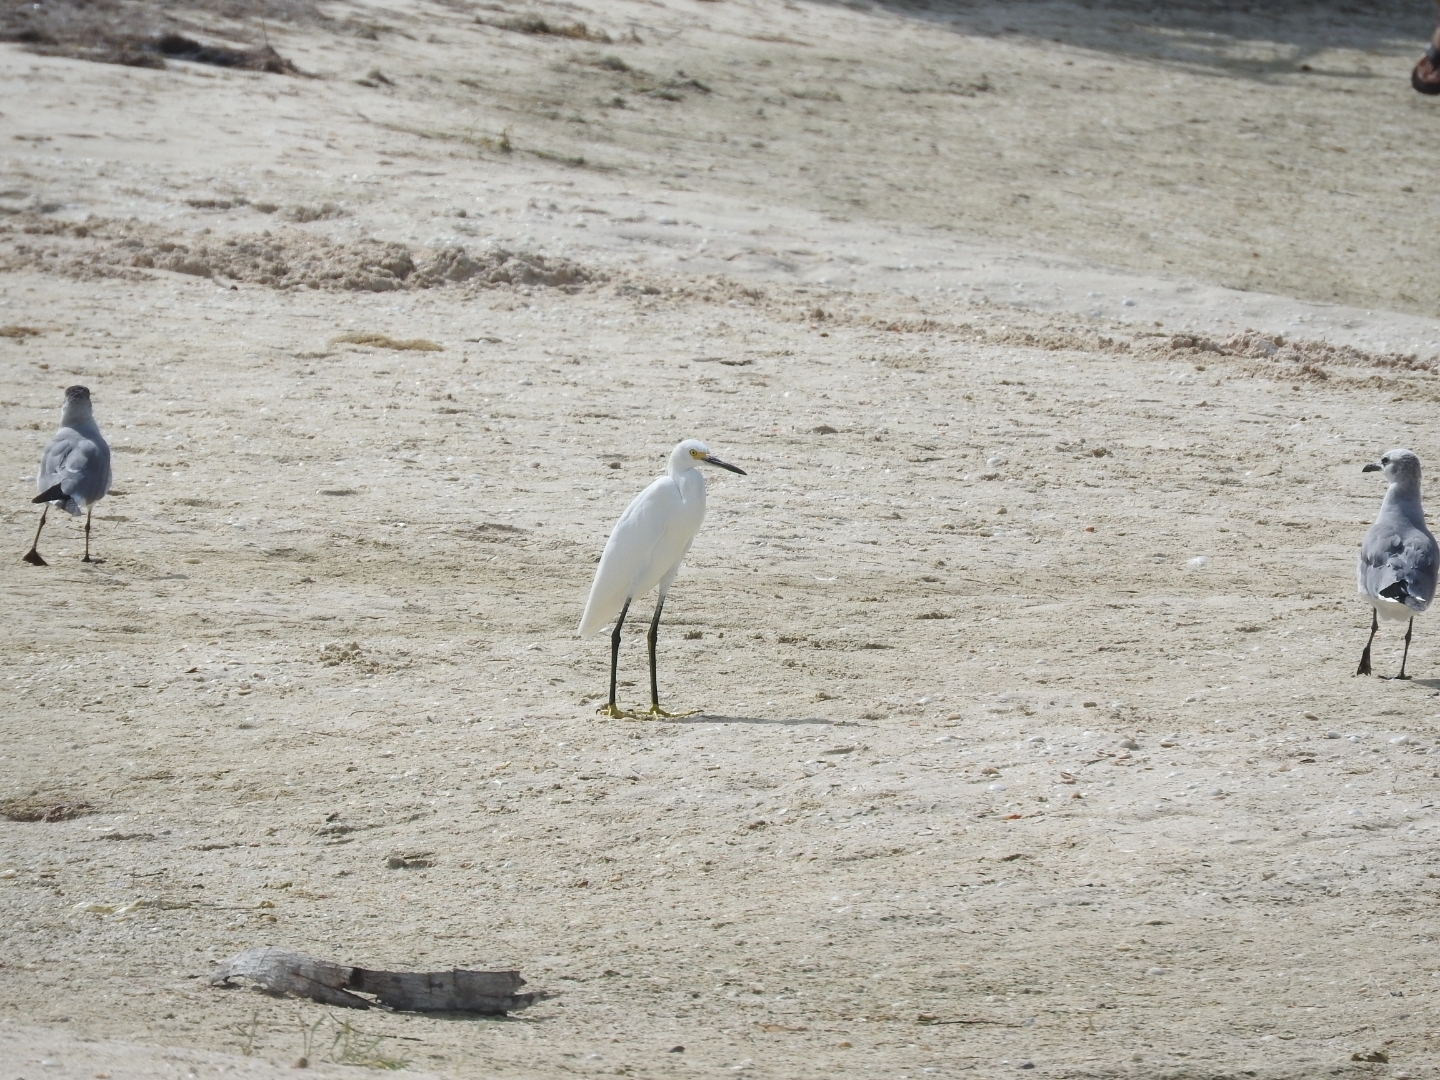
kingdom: Animalia
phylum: Chordata
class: Aves
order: Pelecaniformes
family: Ardeidae
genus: Egretta
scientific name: Egretta thula
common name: Snowy egret
